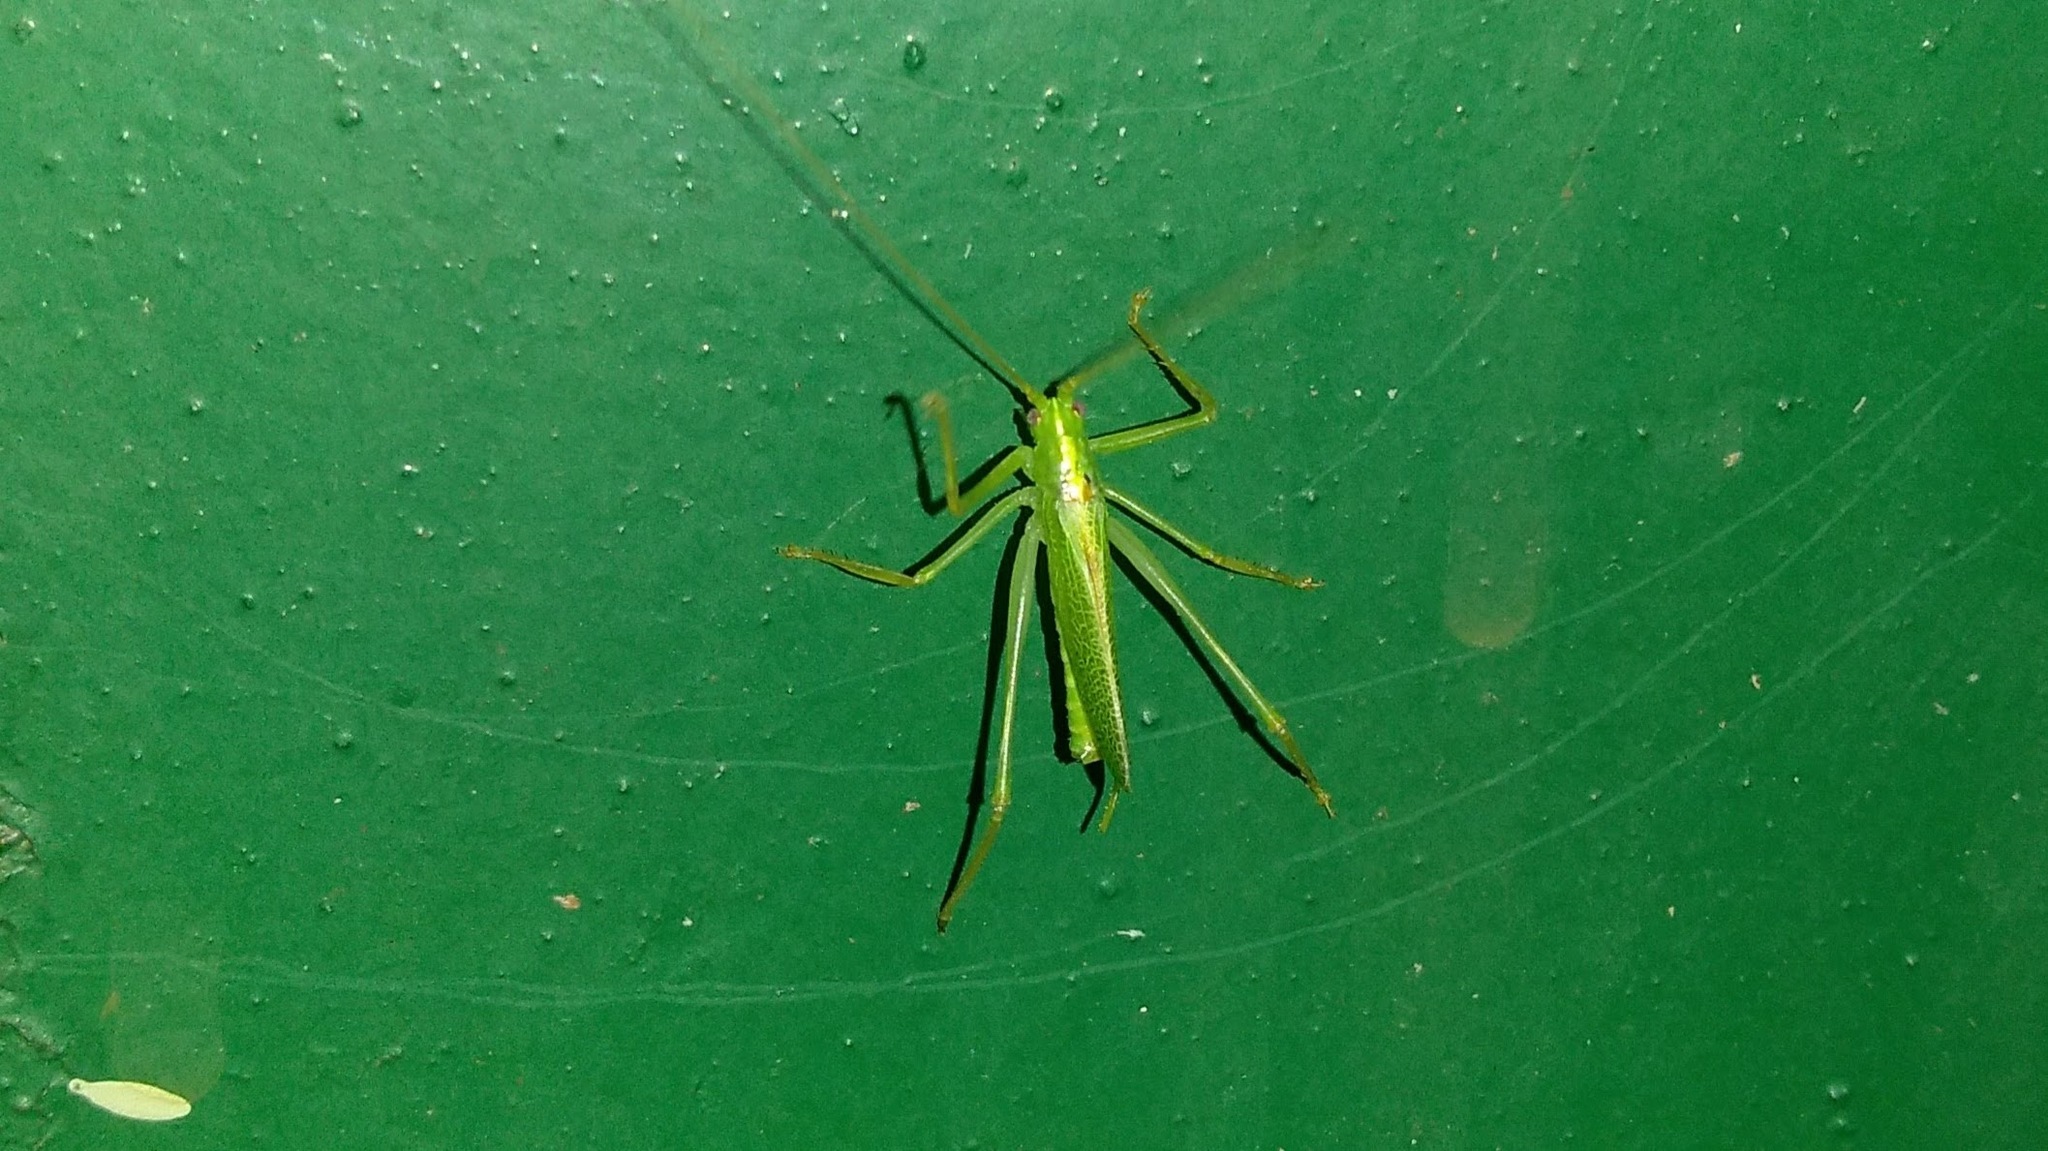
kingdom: Animalia
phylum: Arthropoda
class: Insecta
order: Orthoptera
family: Tettigoniidae
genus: Meconema
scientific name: Meconema thalassinum
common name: Oak bush-cricket
